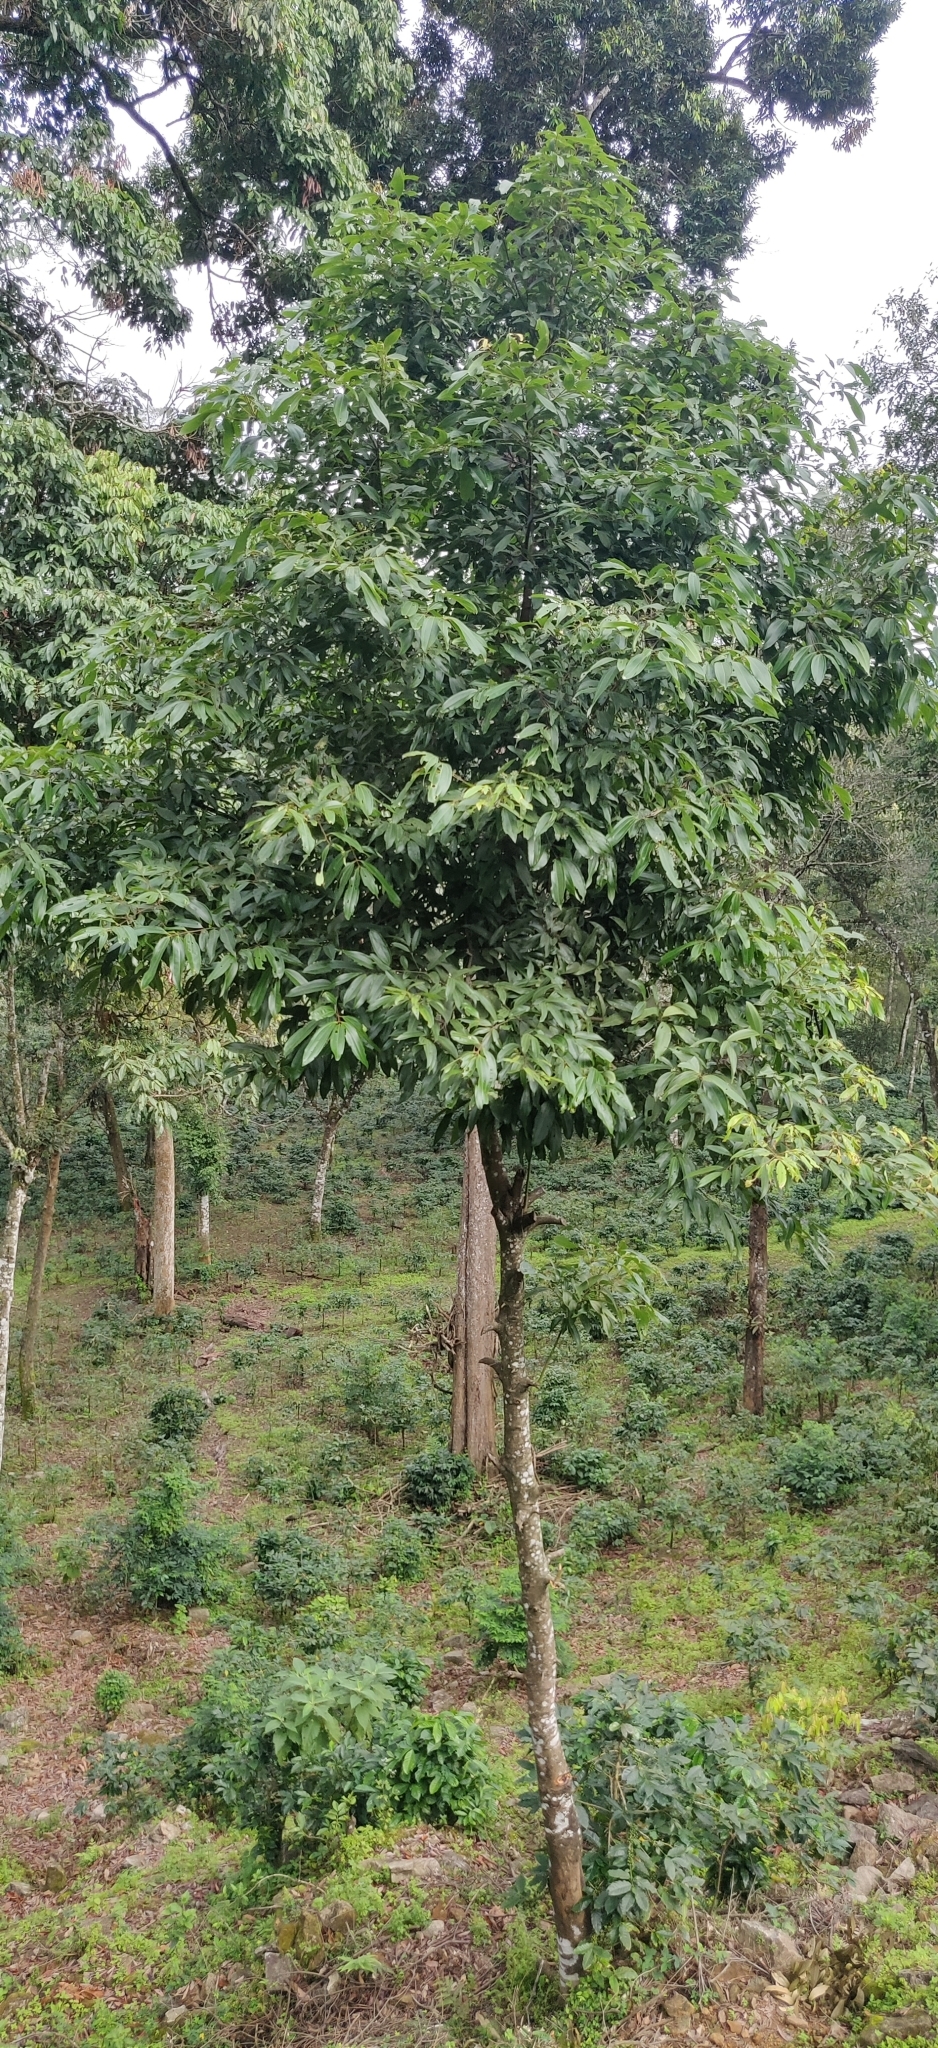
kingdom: Plantae
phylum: Tracheophyta
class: Magnoliopsida
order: Laurales
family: Lauraceae
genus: Cinnamomum
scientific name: Cinnamomum malabatrum
